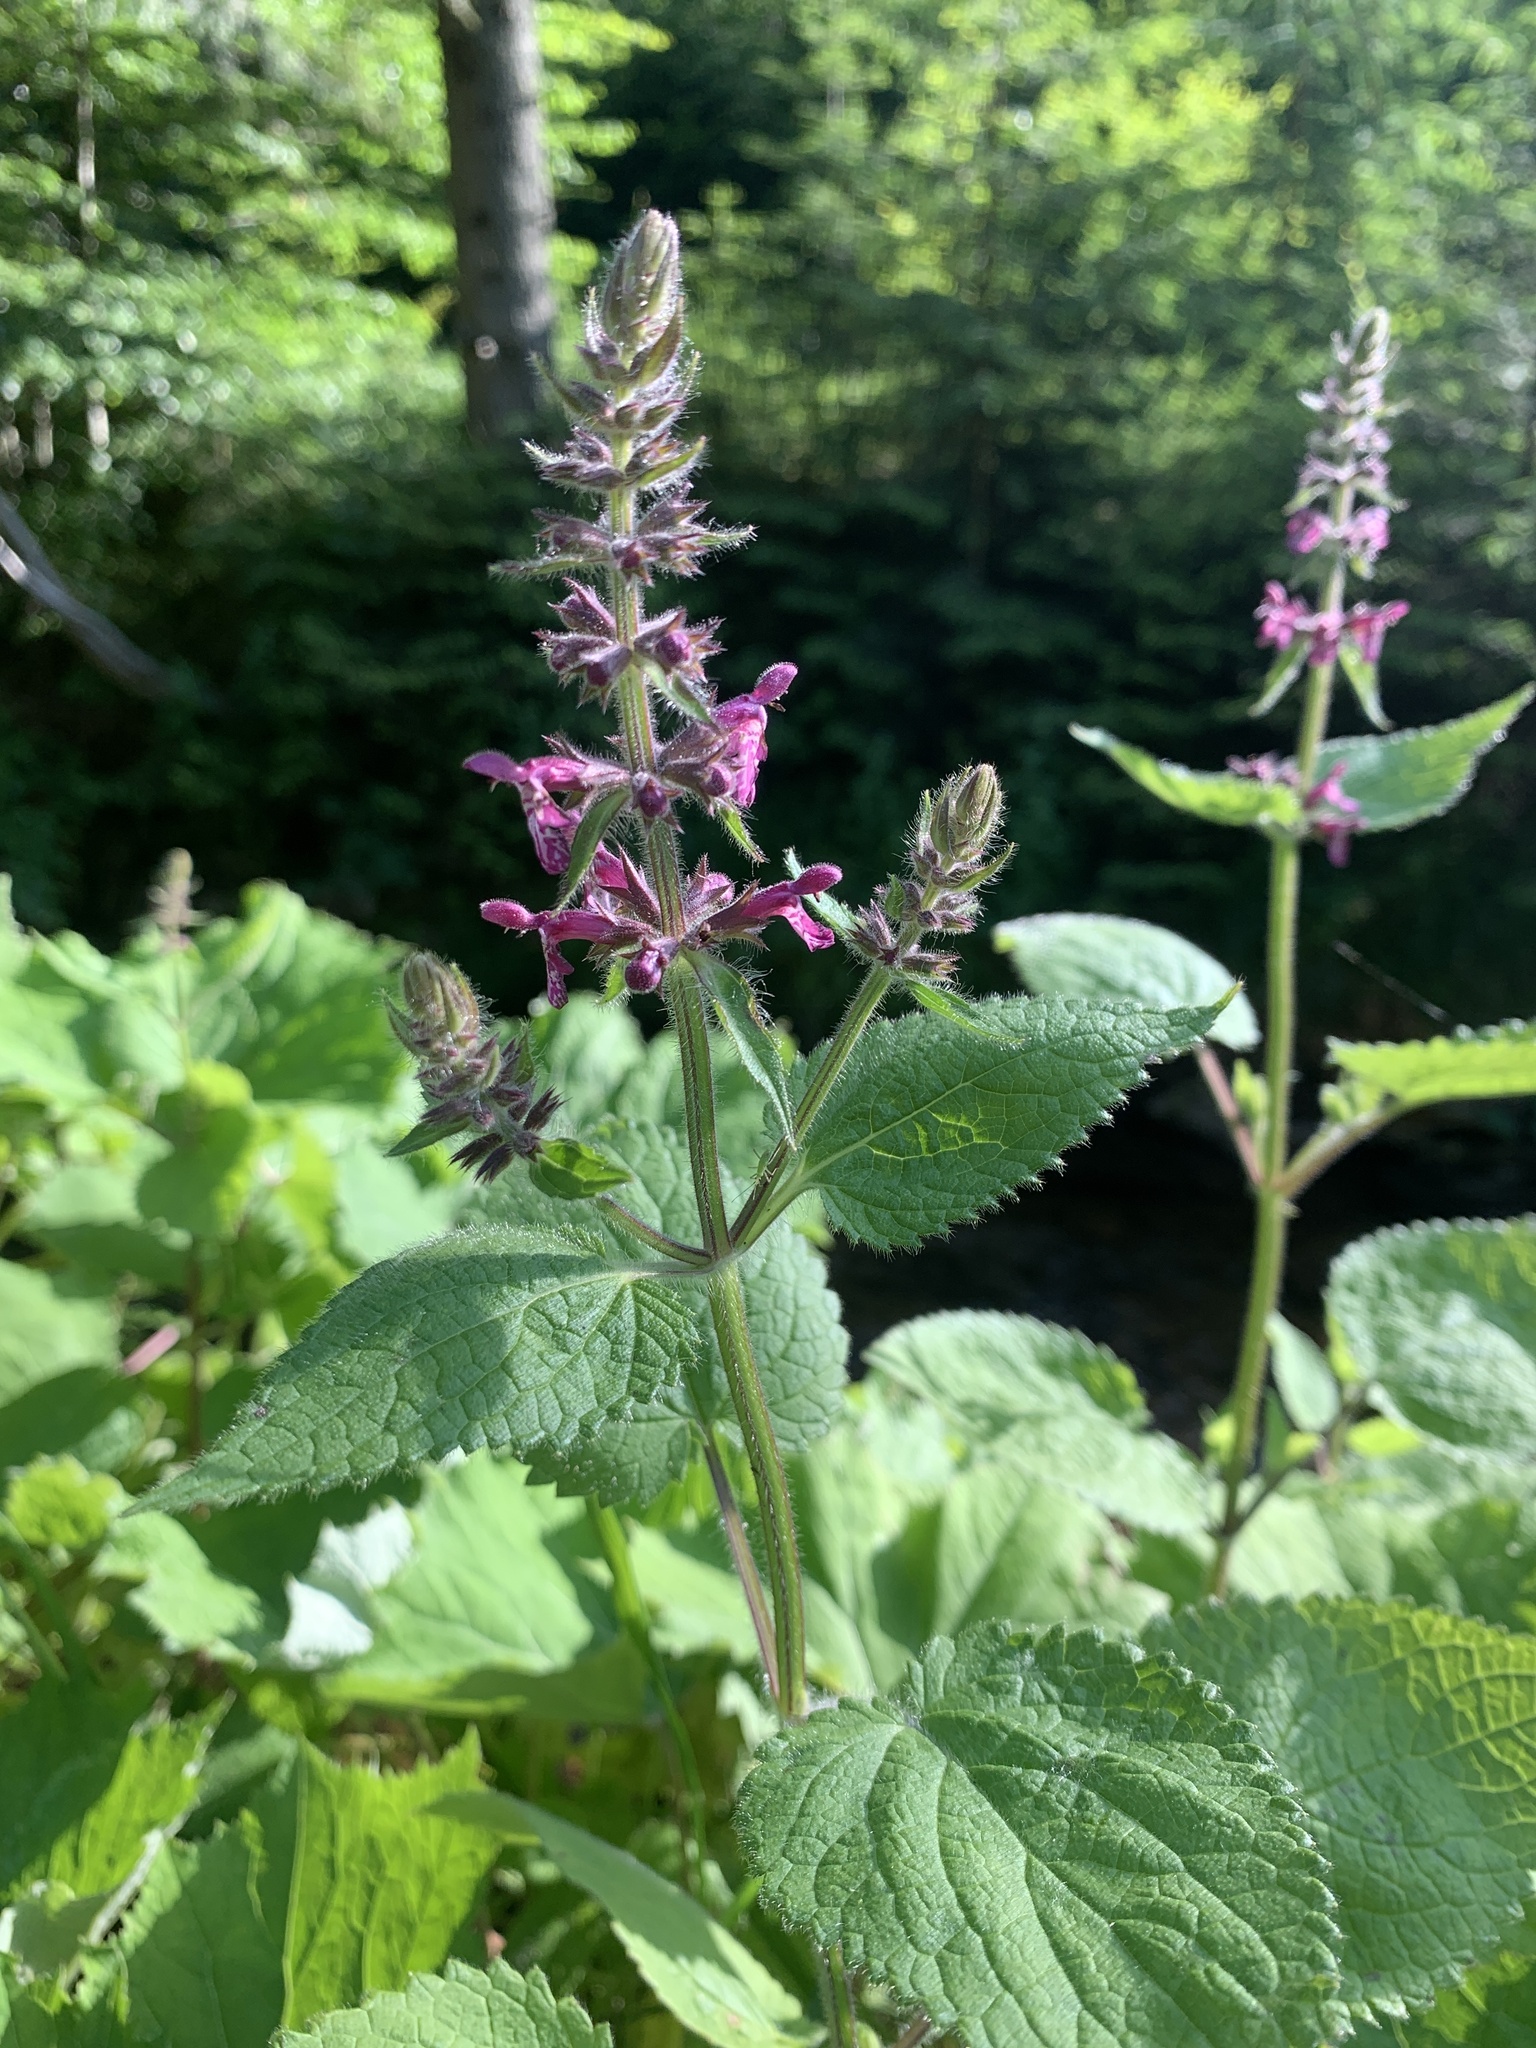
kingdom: Plantae
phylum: Tracheophyta
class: Magnoliopsida
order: Lamiales
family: Lamiaceae
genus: Stachys
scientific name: Stachys sylvatica
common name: Hedge woundwort
